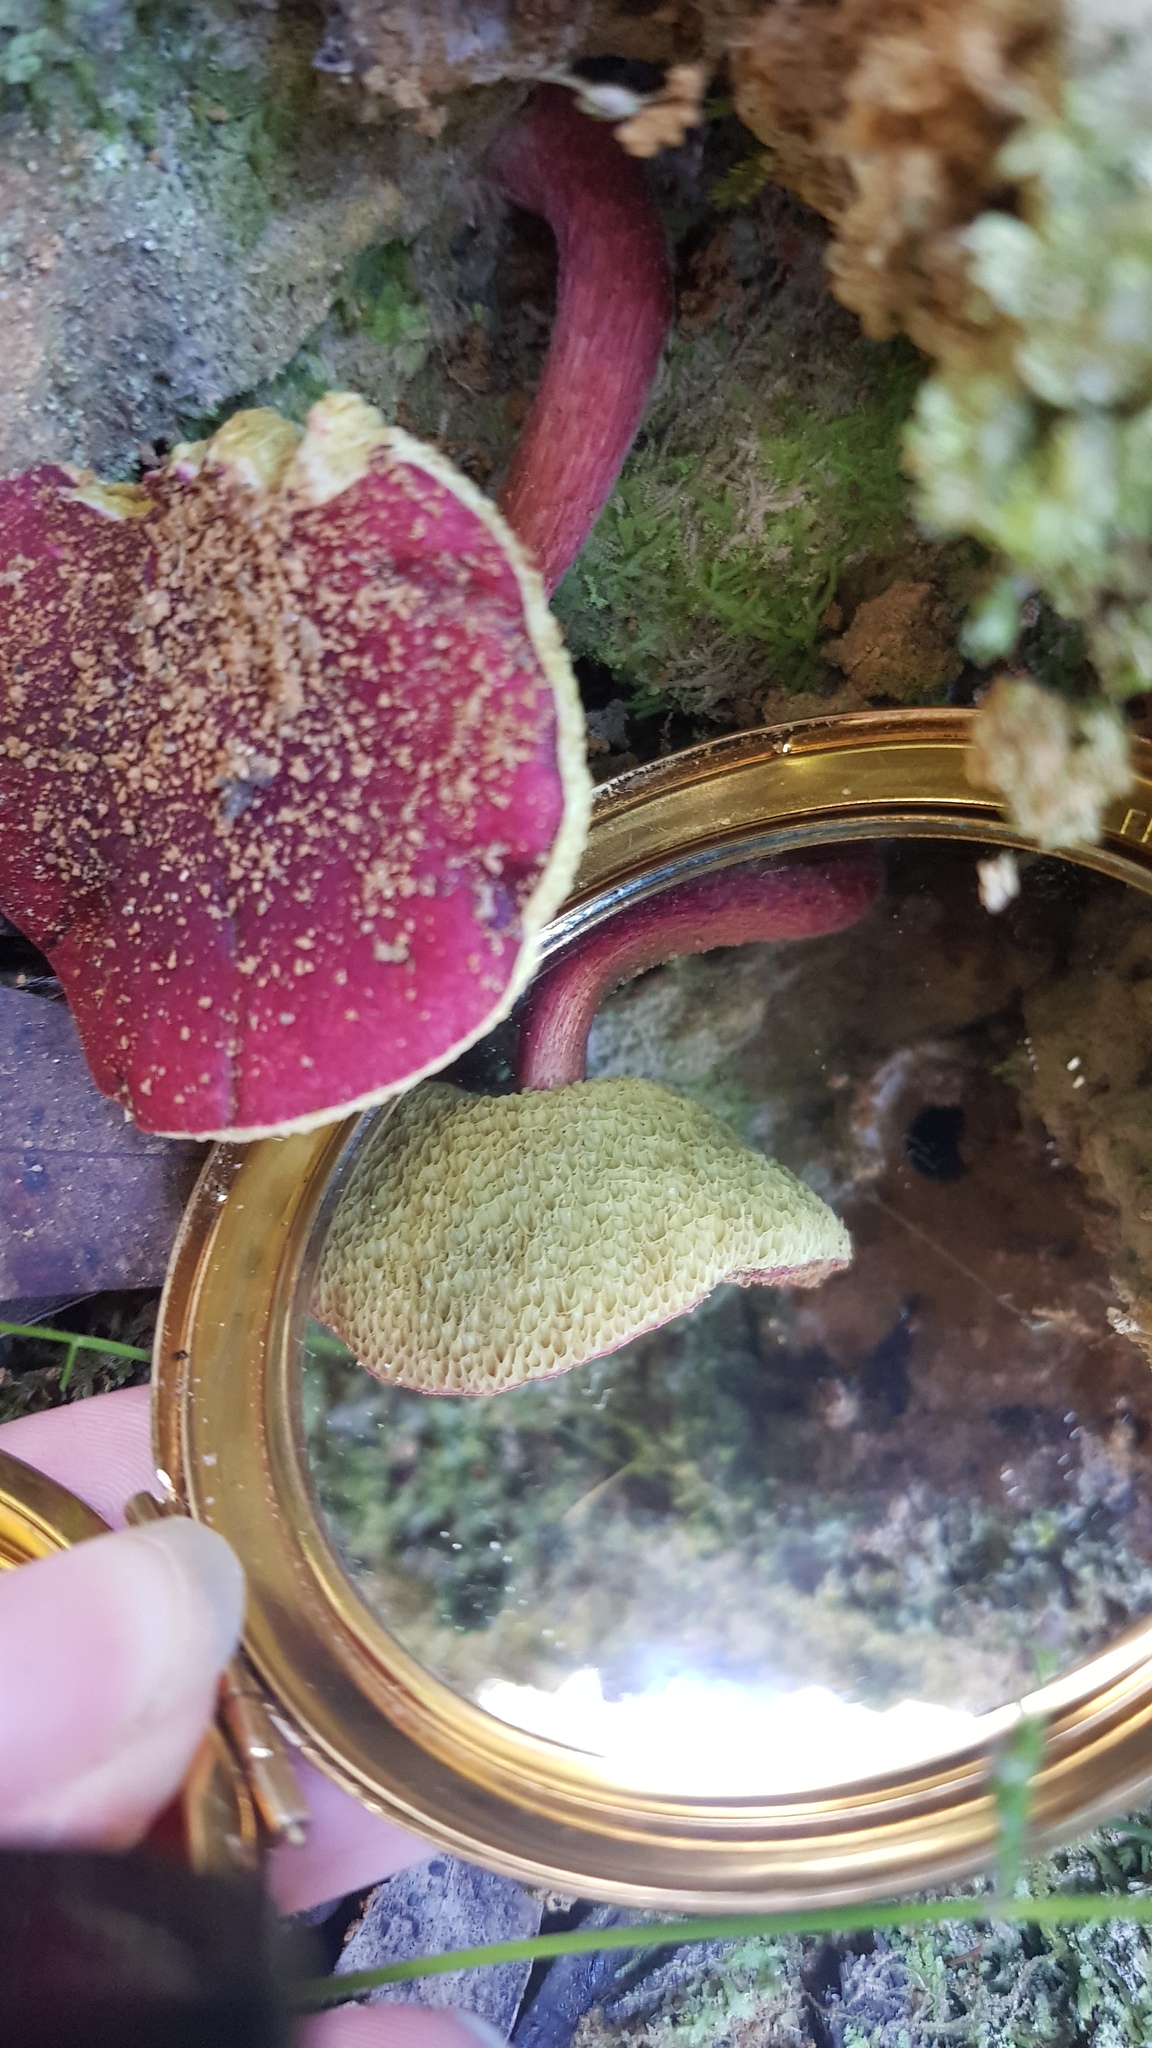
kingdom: Fungi
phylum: Basidiomycota
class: Agaricomycetes
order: Boletales
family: Boletaceae
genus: Boletellus
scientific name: Boletellus obscurecoccineus
